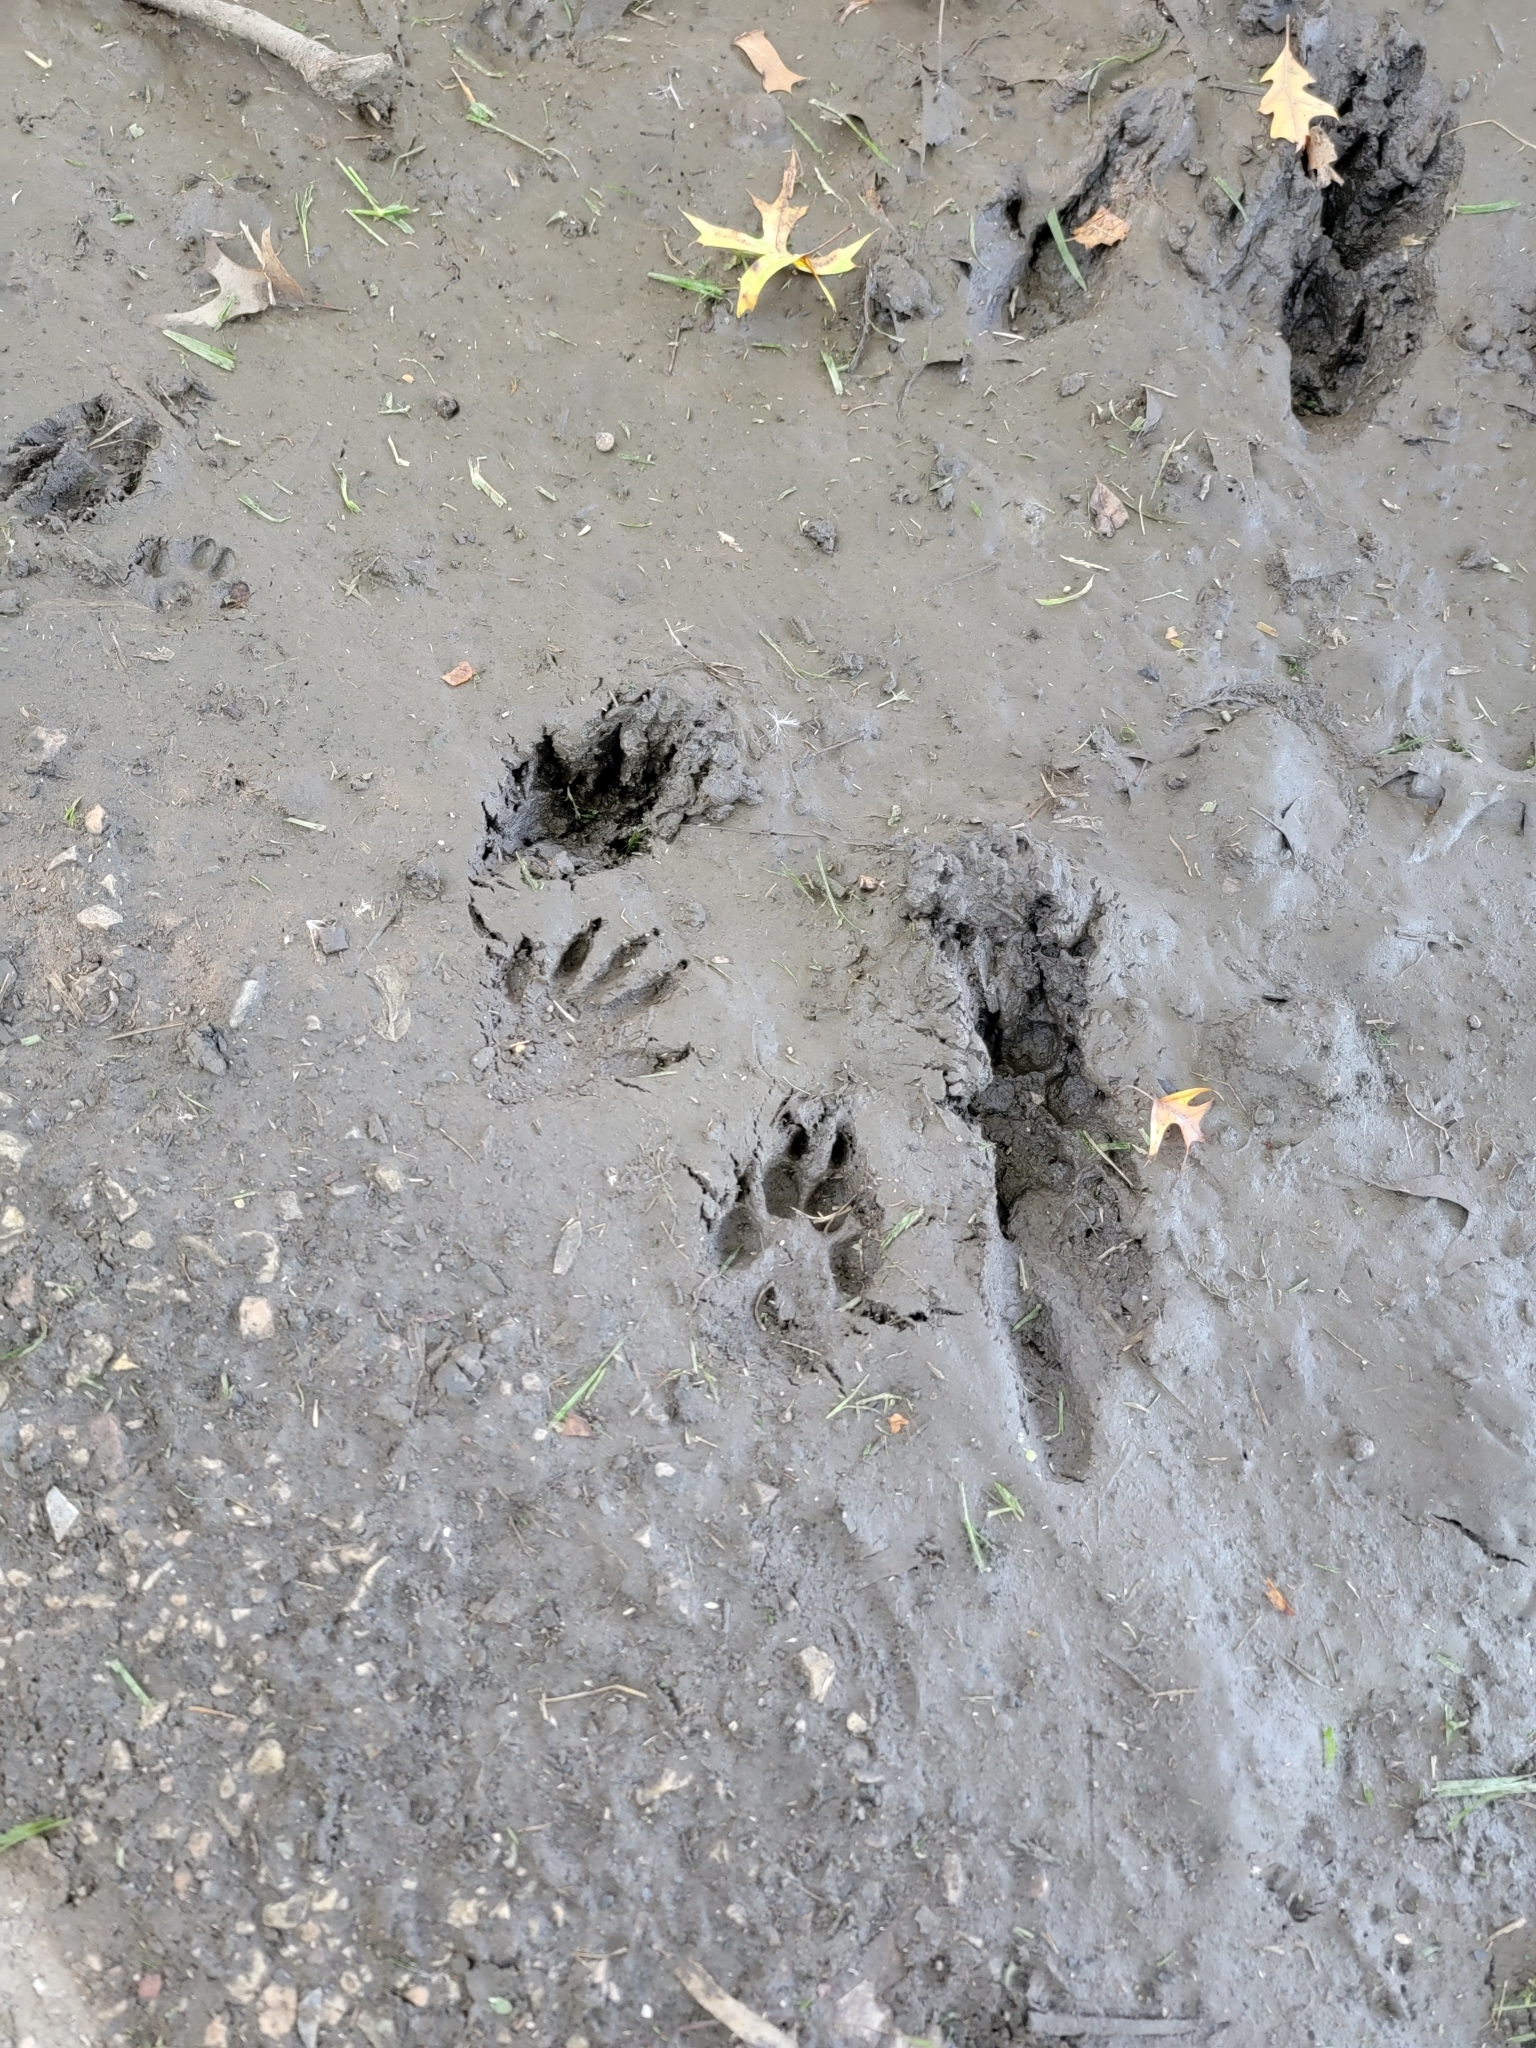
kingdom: Animalia
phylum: Chordata
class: Mammalia
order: Carnivora
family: Procyonidae
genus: Procyon
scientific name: Procyon lotor
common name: Raccoon
